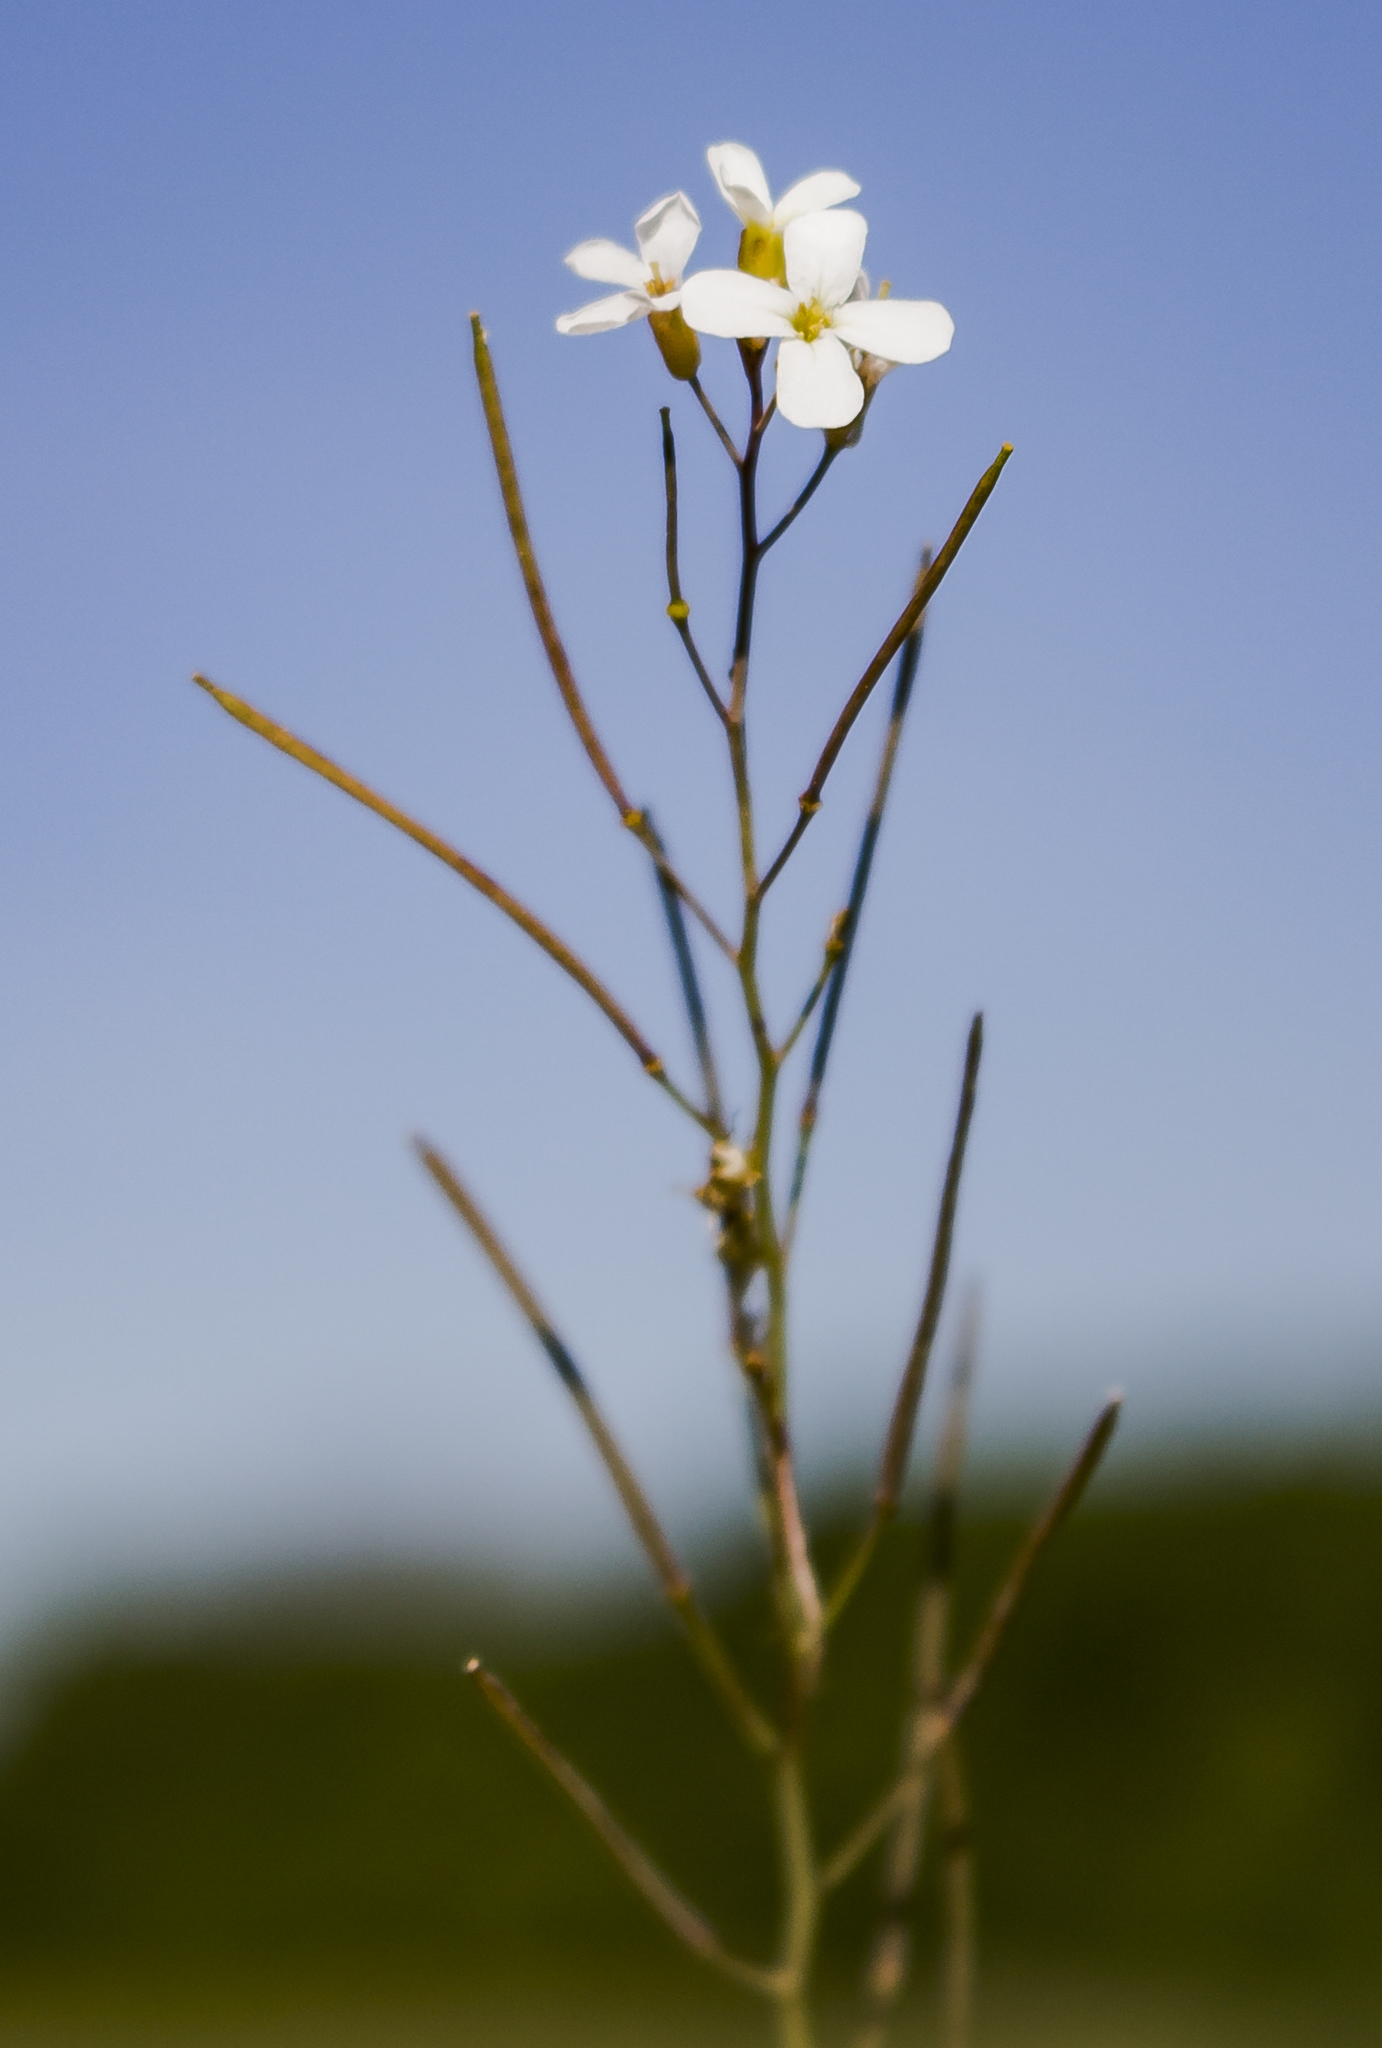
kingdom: Plantae
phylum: Tracheophyta
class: Magnoliopsida
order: Brassicales
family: Brassicaceae
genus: Arabidopsis
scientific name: Arabidopsis lyrata
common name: Lyrate rockcress
